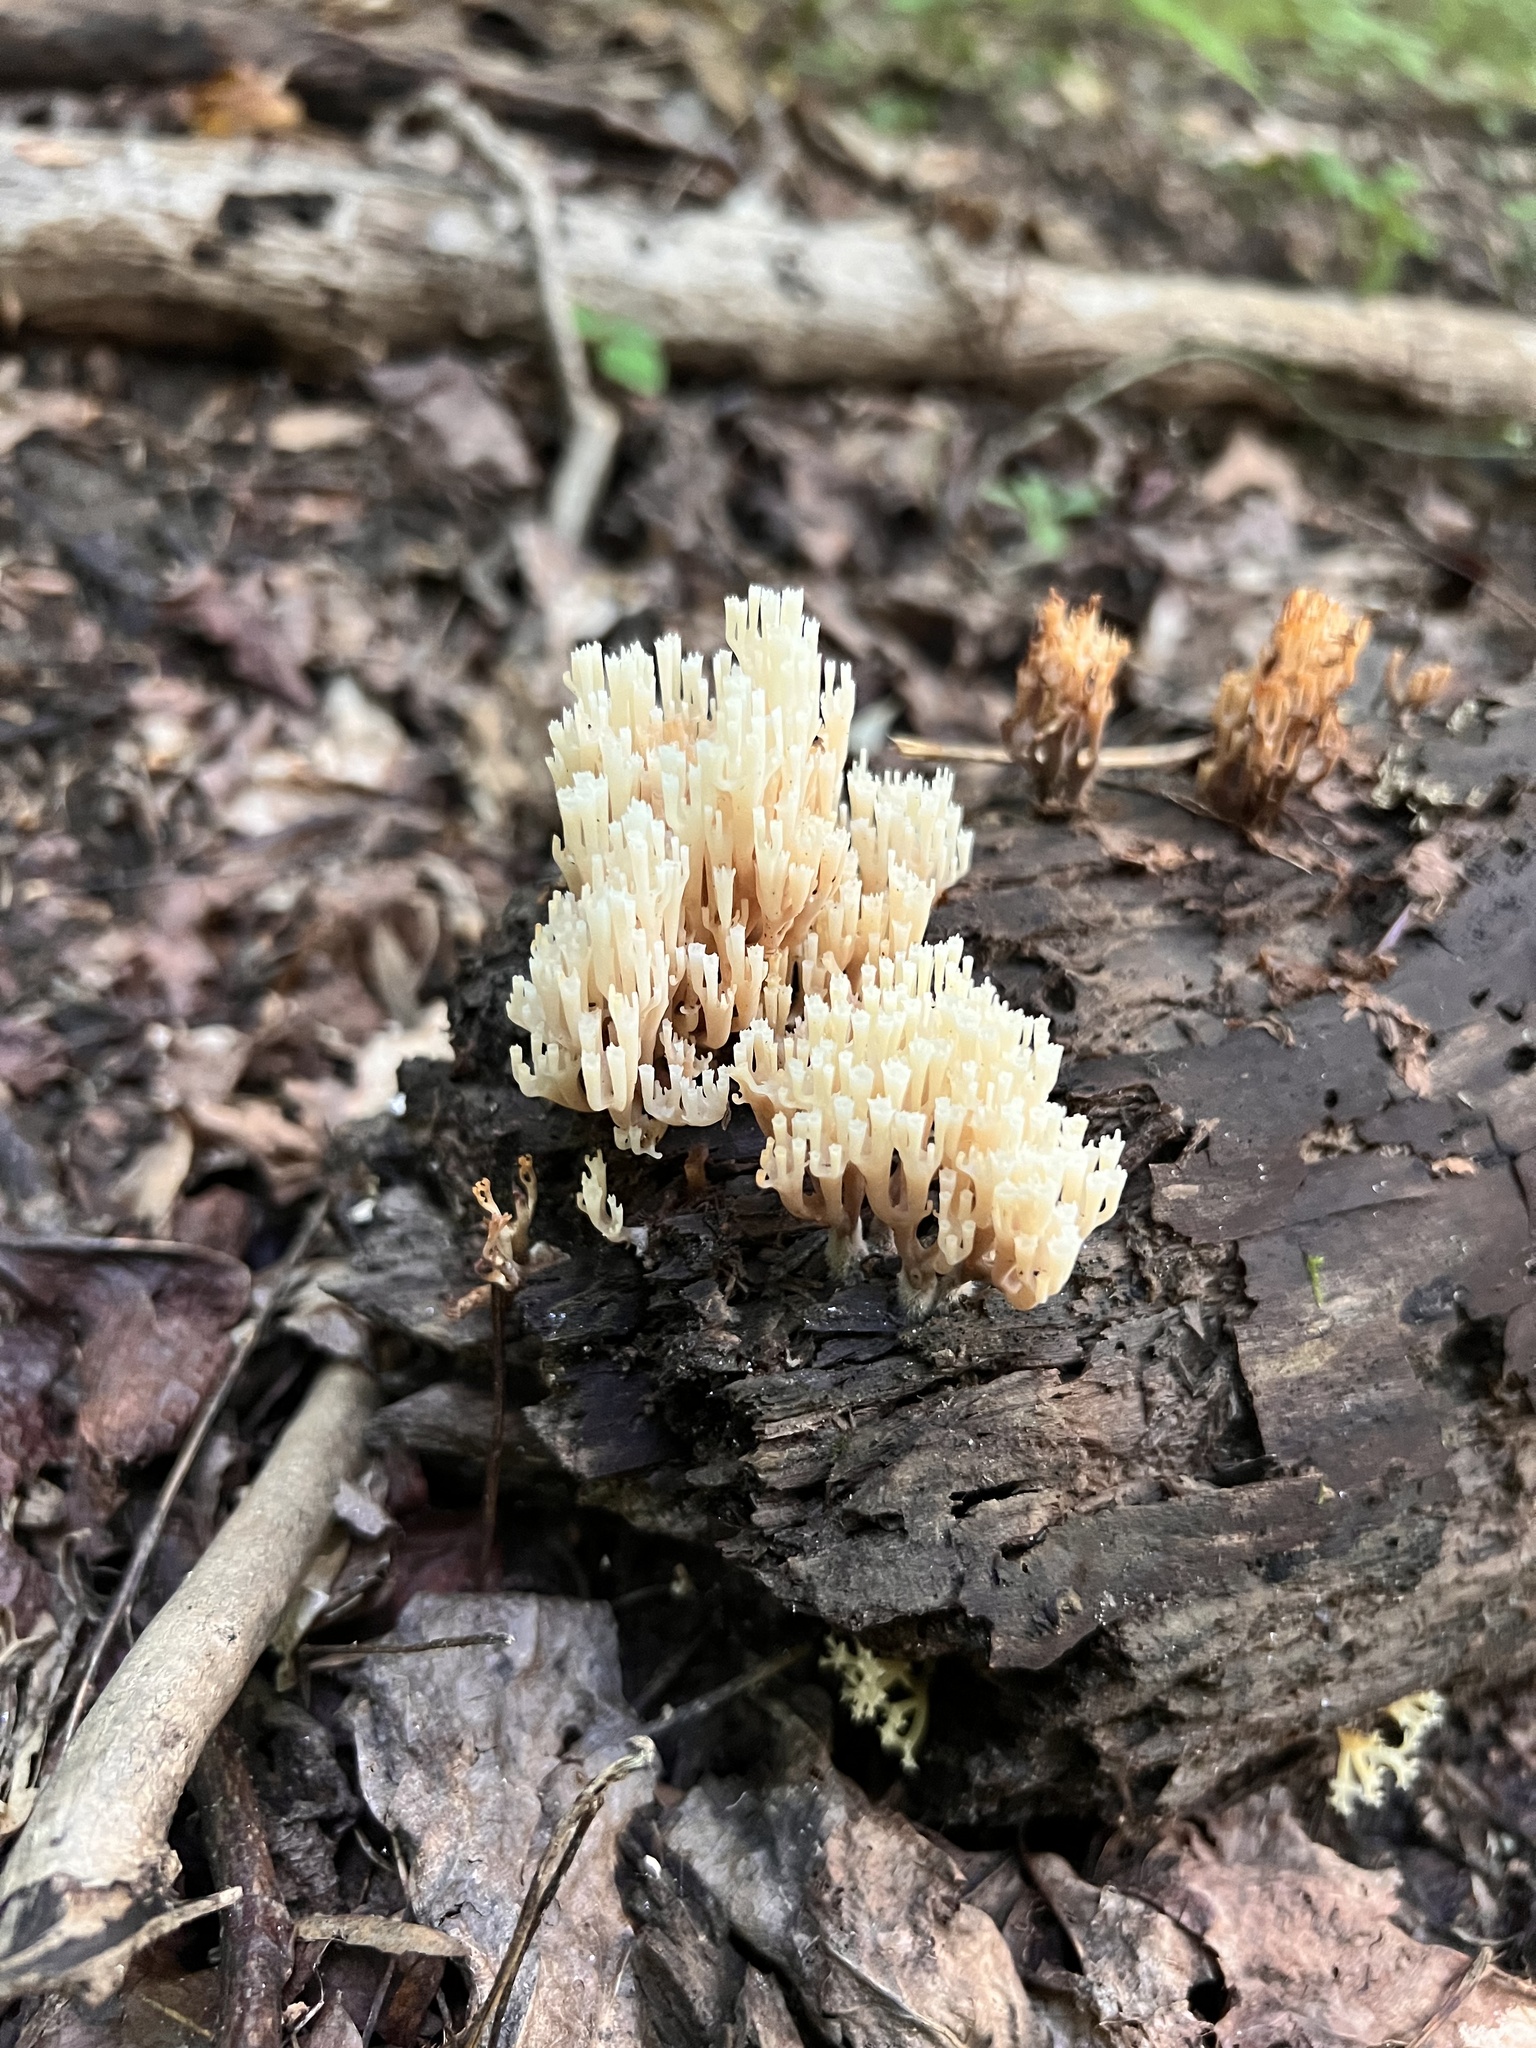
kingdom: Fungi
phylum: Basidiomycota
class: Agaricomycetes
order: Russulales
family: Auriscalpiaceae
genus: Artomyces
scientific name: Artomyces pyxidatus
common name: Crown-tipped coral fungus
